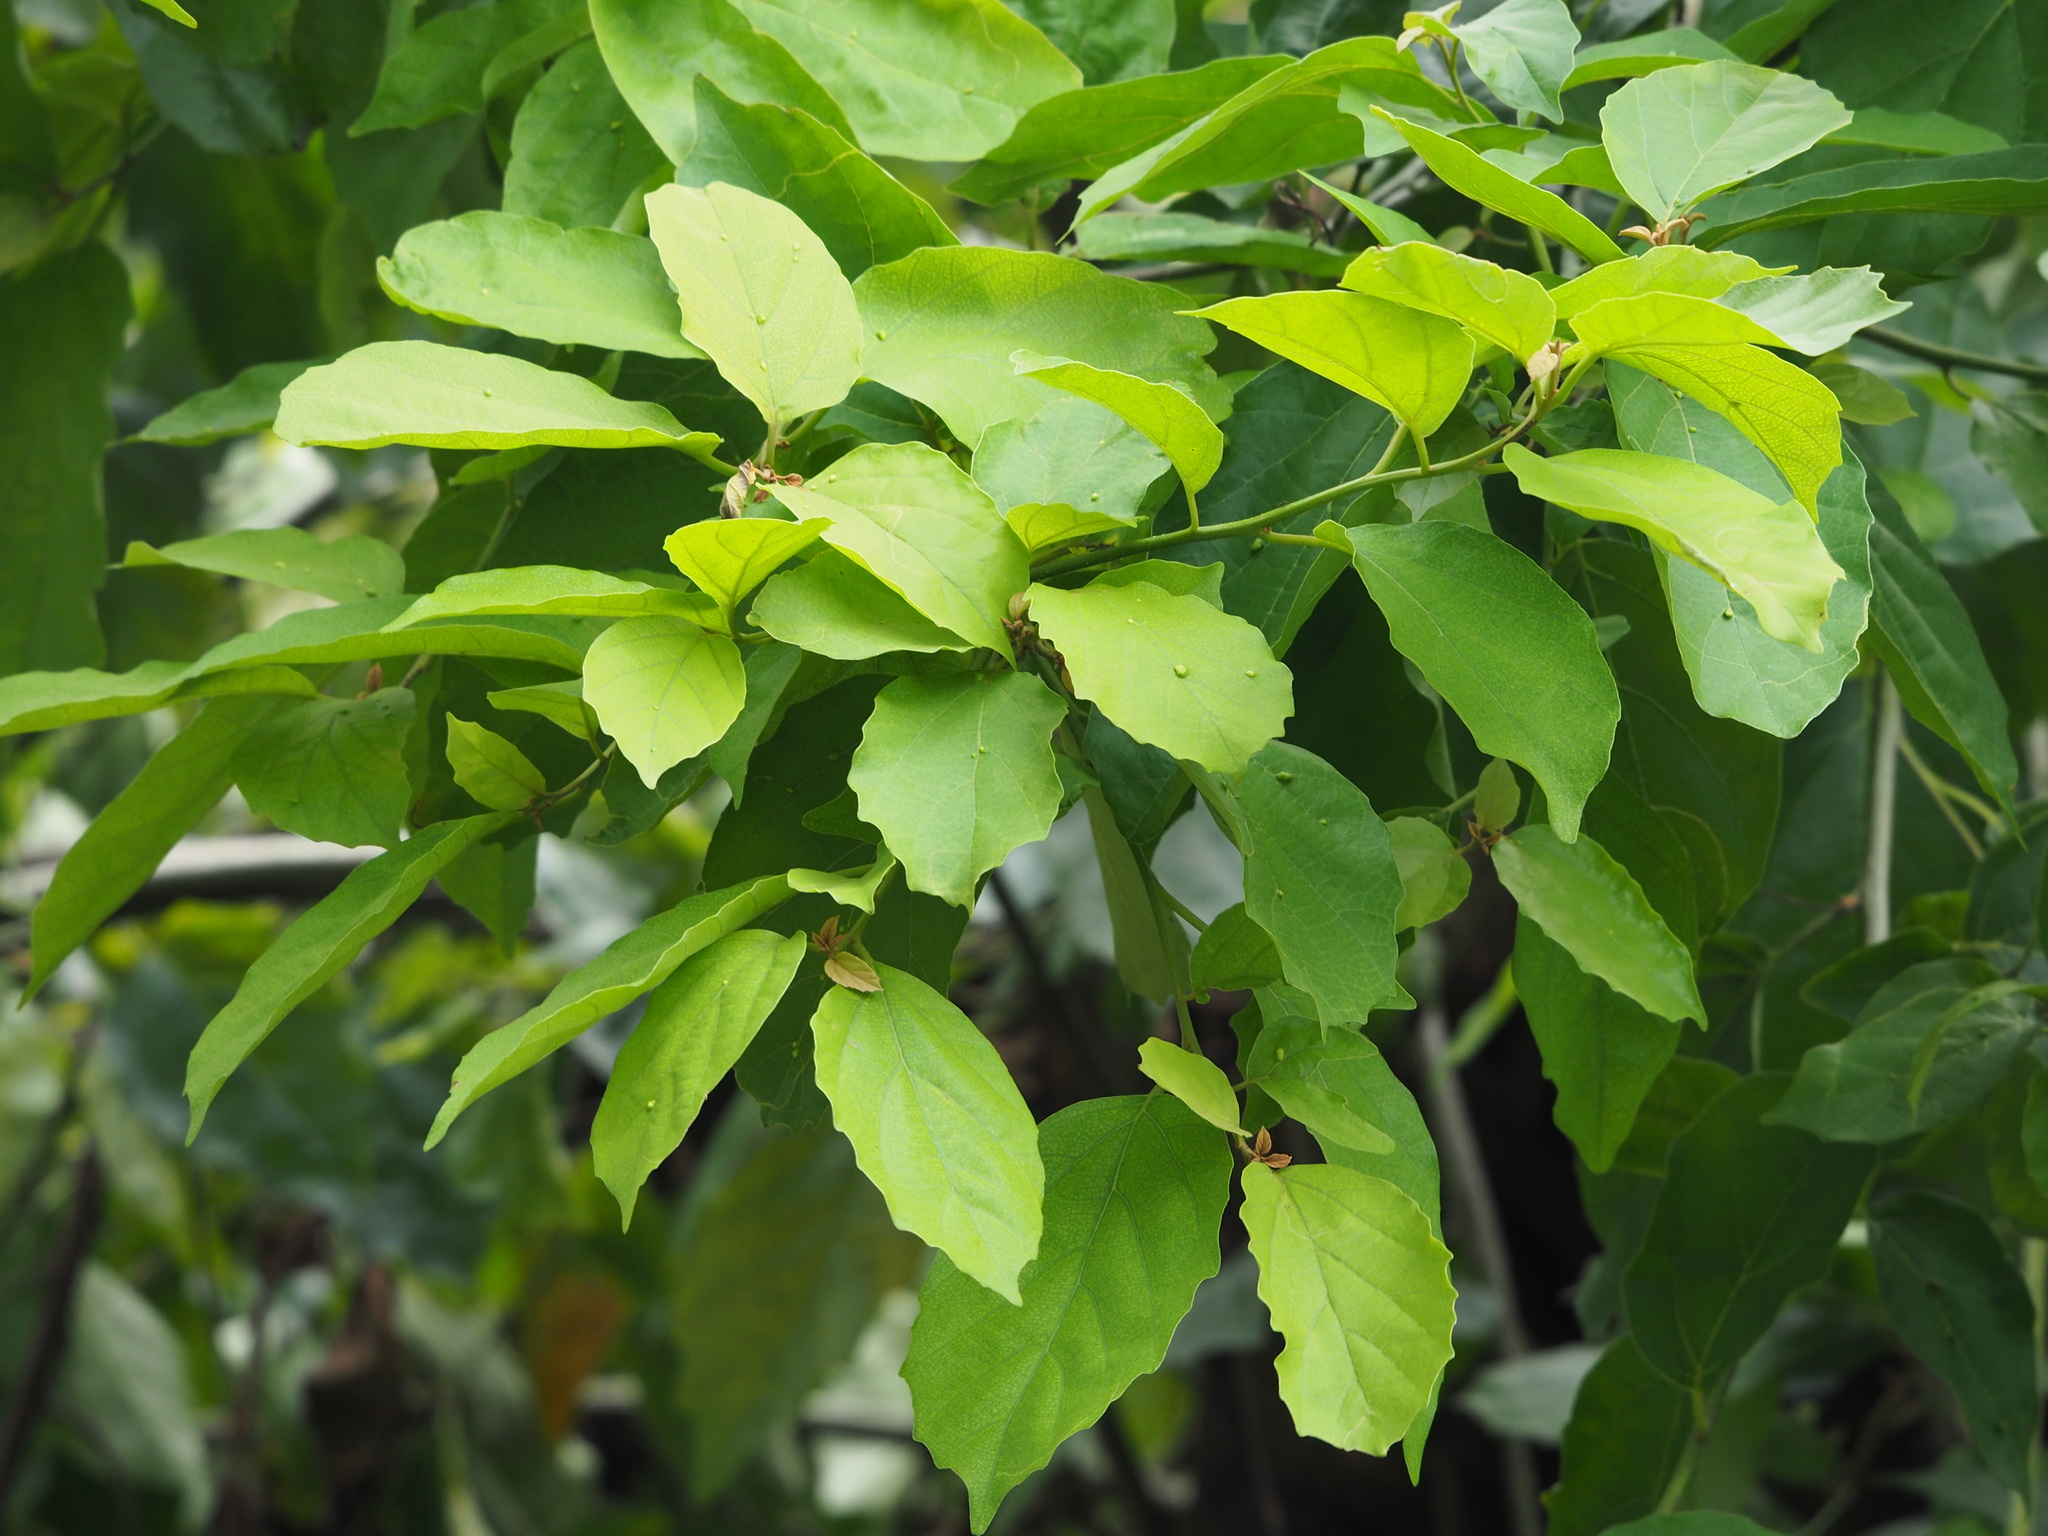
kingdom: Plantae
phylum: Tracheophyta
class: Magnoliopsida
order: Boraginales
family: Cordiaceae
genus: Cordia
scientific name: Cordia dichotoma
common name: Fragrant manjack
